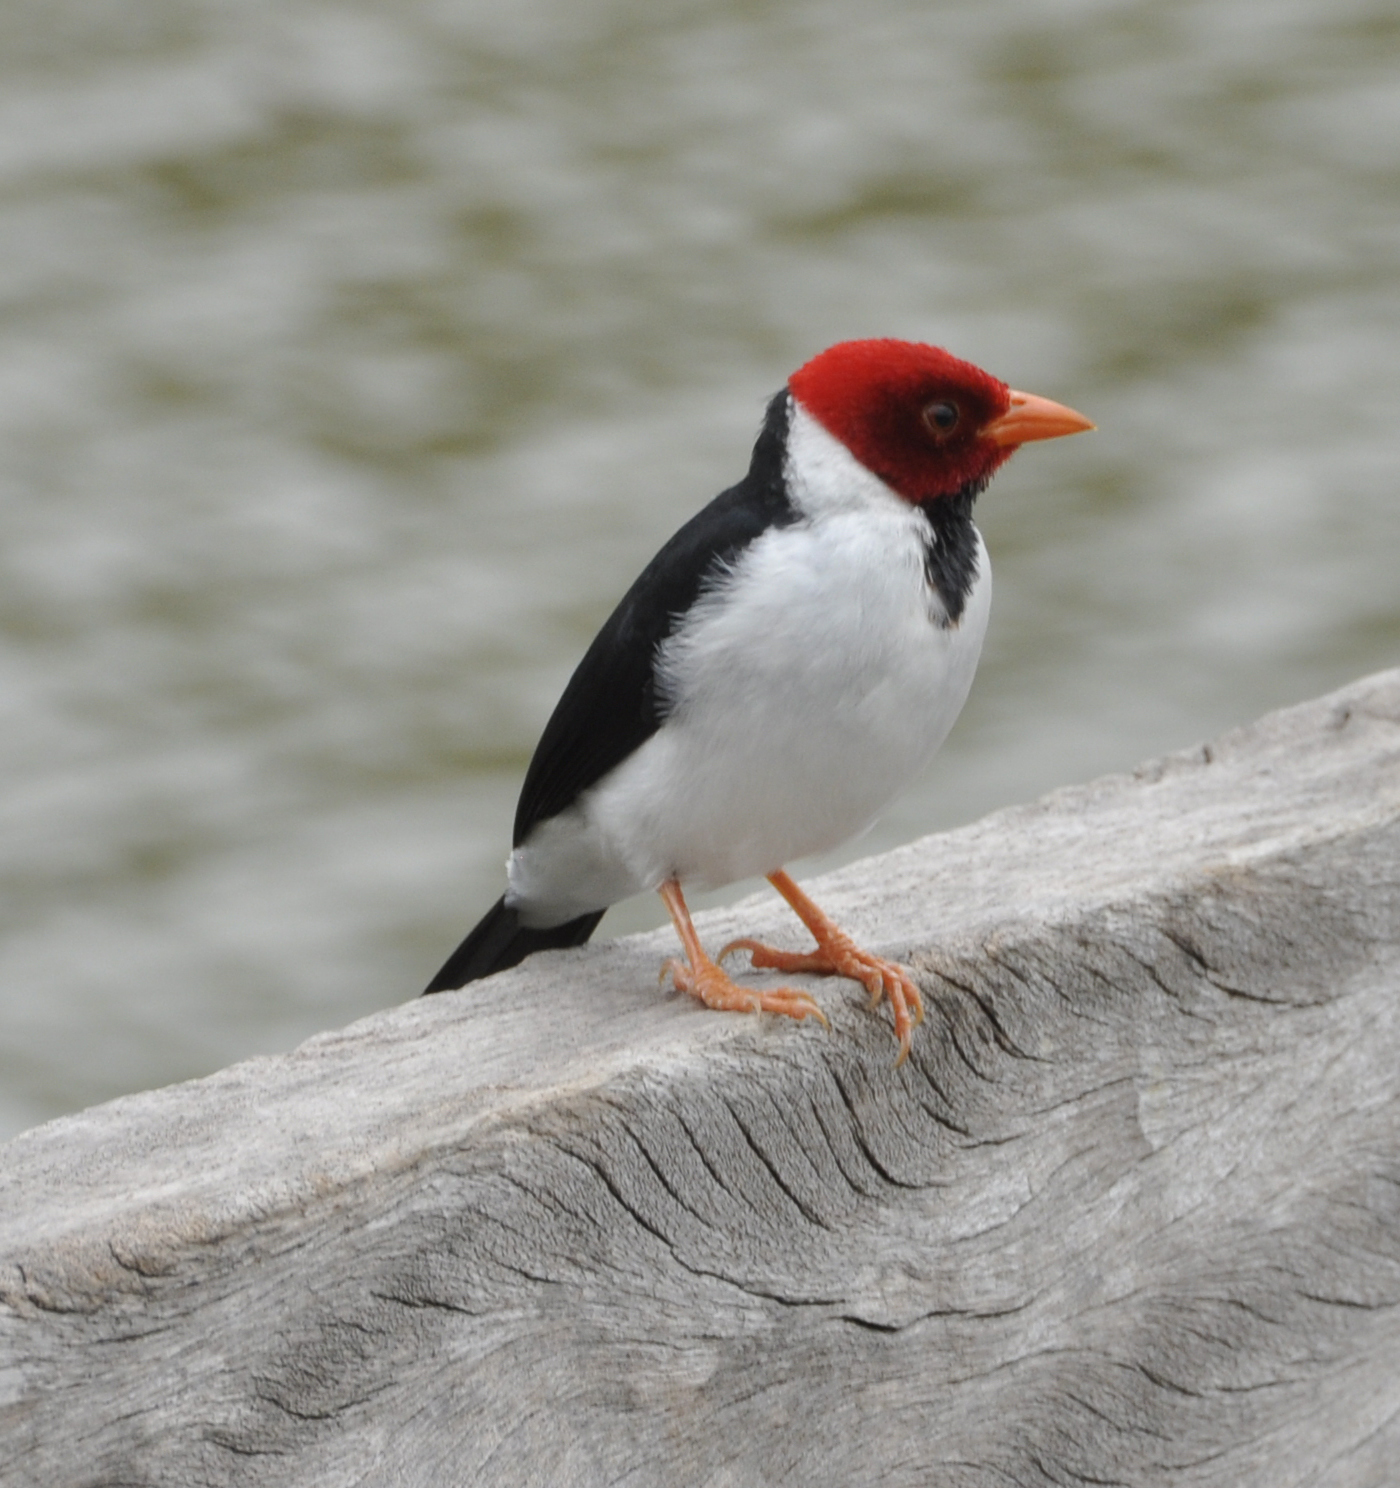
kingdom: Animalia
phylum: Chordata
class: Aves
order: Passeriformes
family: Thraupidae
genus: Paroaria
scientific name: Paroaria capitata
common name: Yellow-billed cardinal
